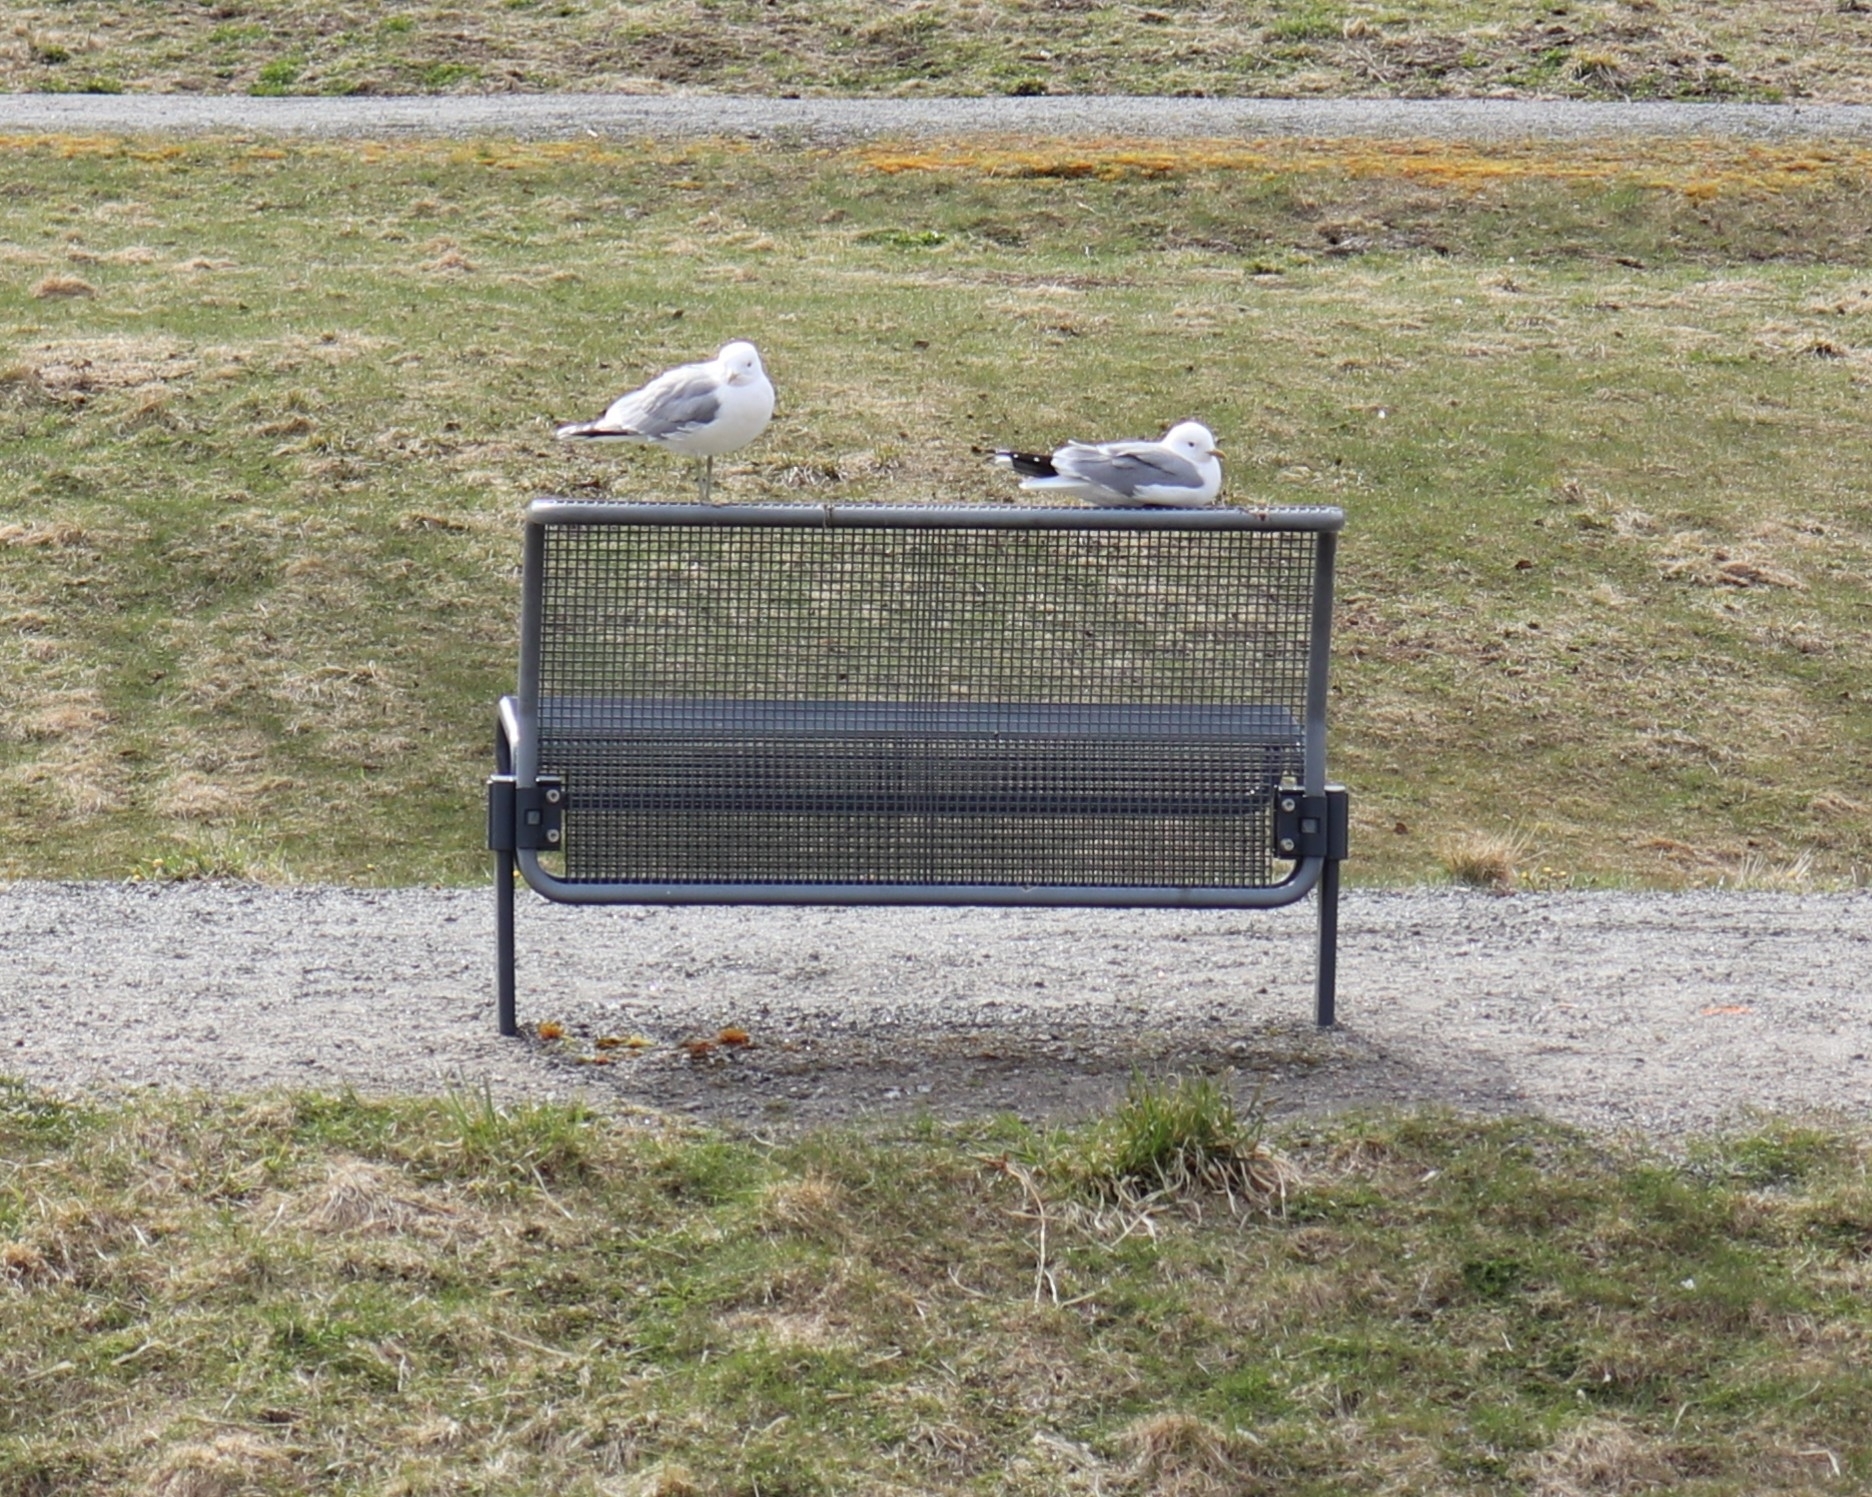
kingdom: Animalia
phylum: Chordata
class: Aves
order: Charadriiformes
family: Laridae
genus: Larus
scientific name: Larus canus
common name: Mew gull
